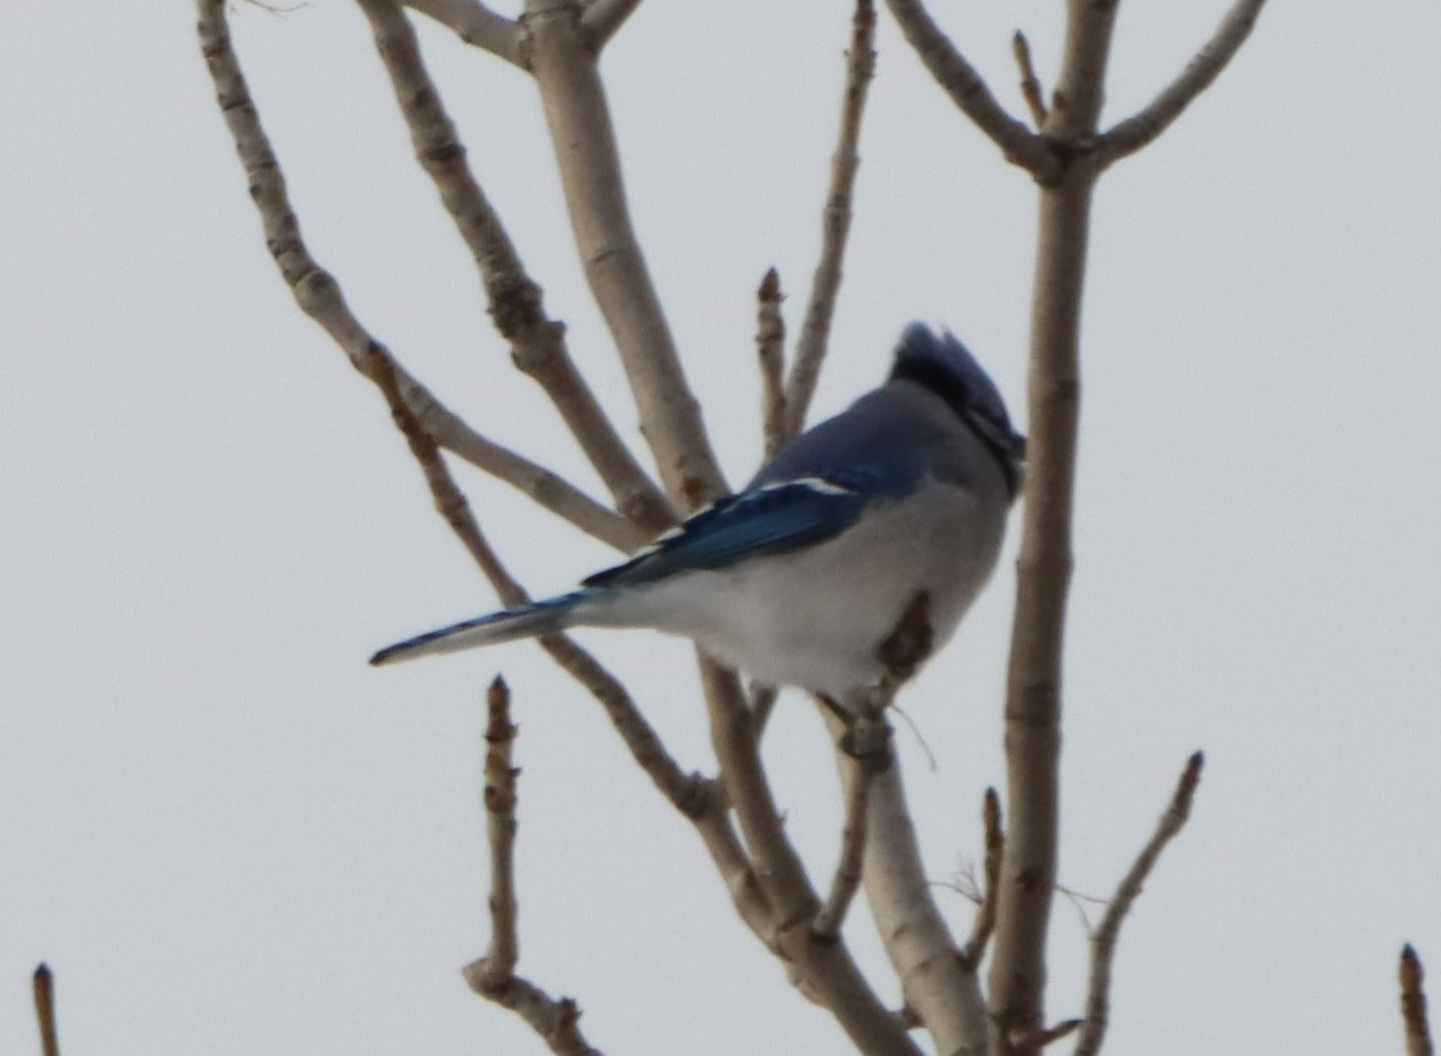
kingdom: Animalia
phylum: Chordata
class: Aves
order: Passeriformes
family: Corvidae
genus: Cyanocitta
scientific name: Cyanocitta cristata
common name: Blue jay
